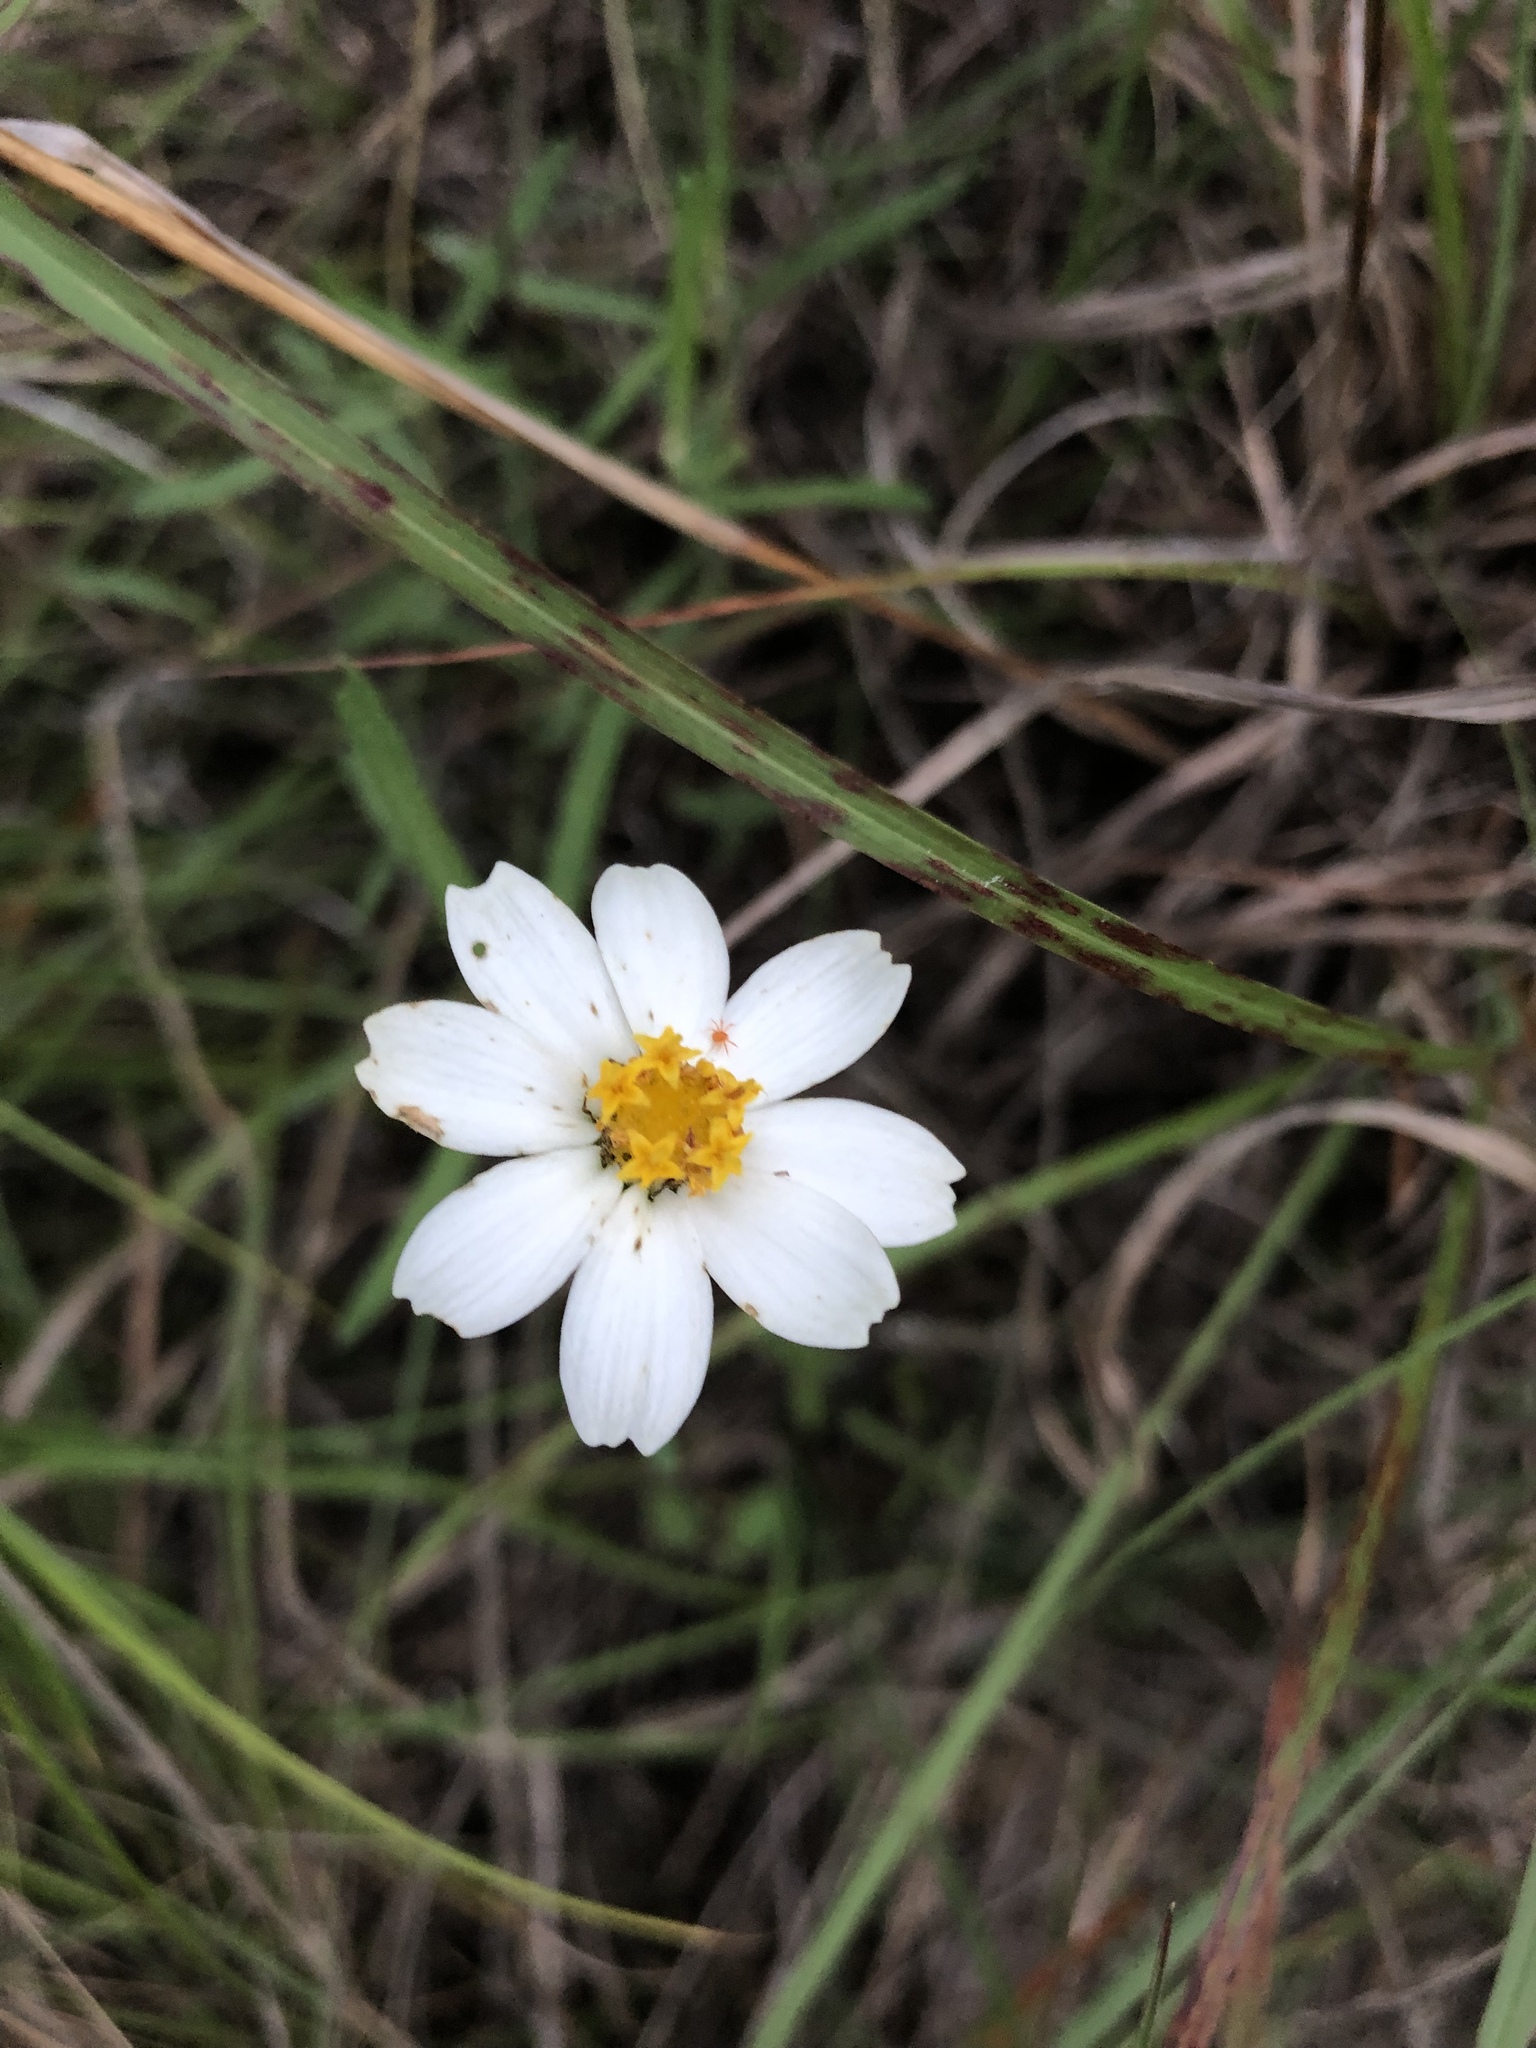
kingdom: Plantae
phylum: Tracheophyta
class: Magnoliopsida
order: Asterales
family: Asteraceae
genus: Melampodium
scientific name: Melampodium leucanthum
